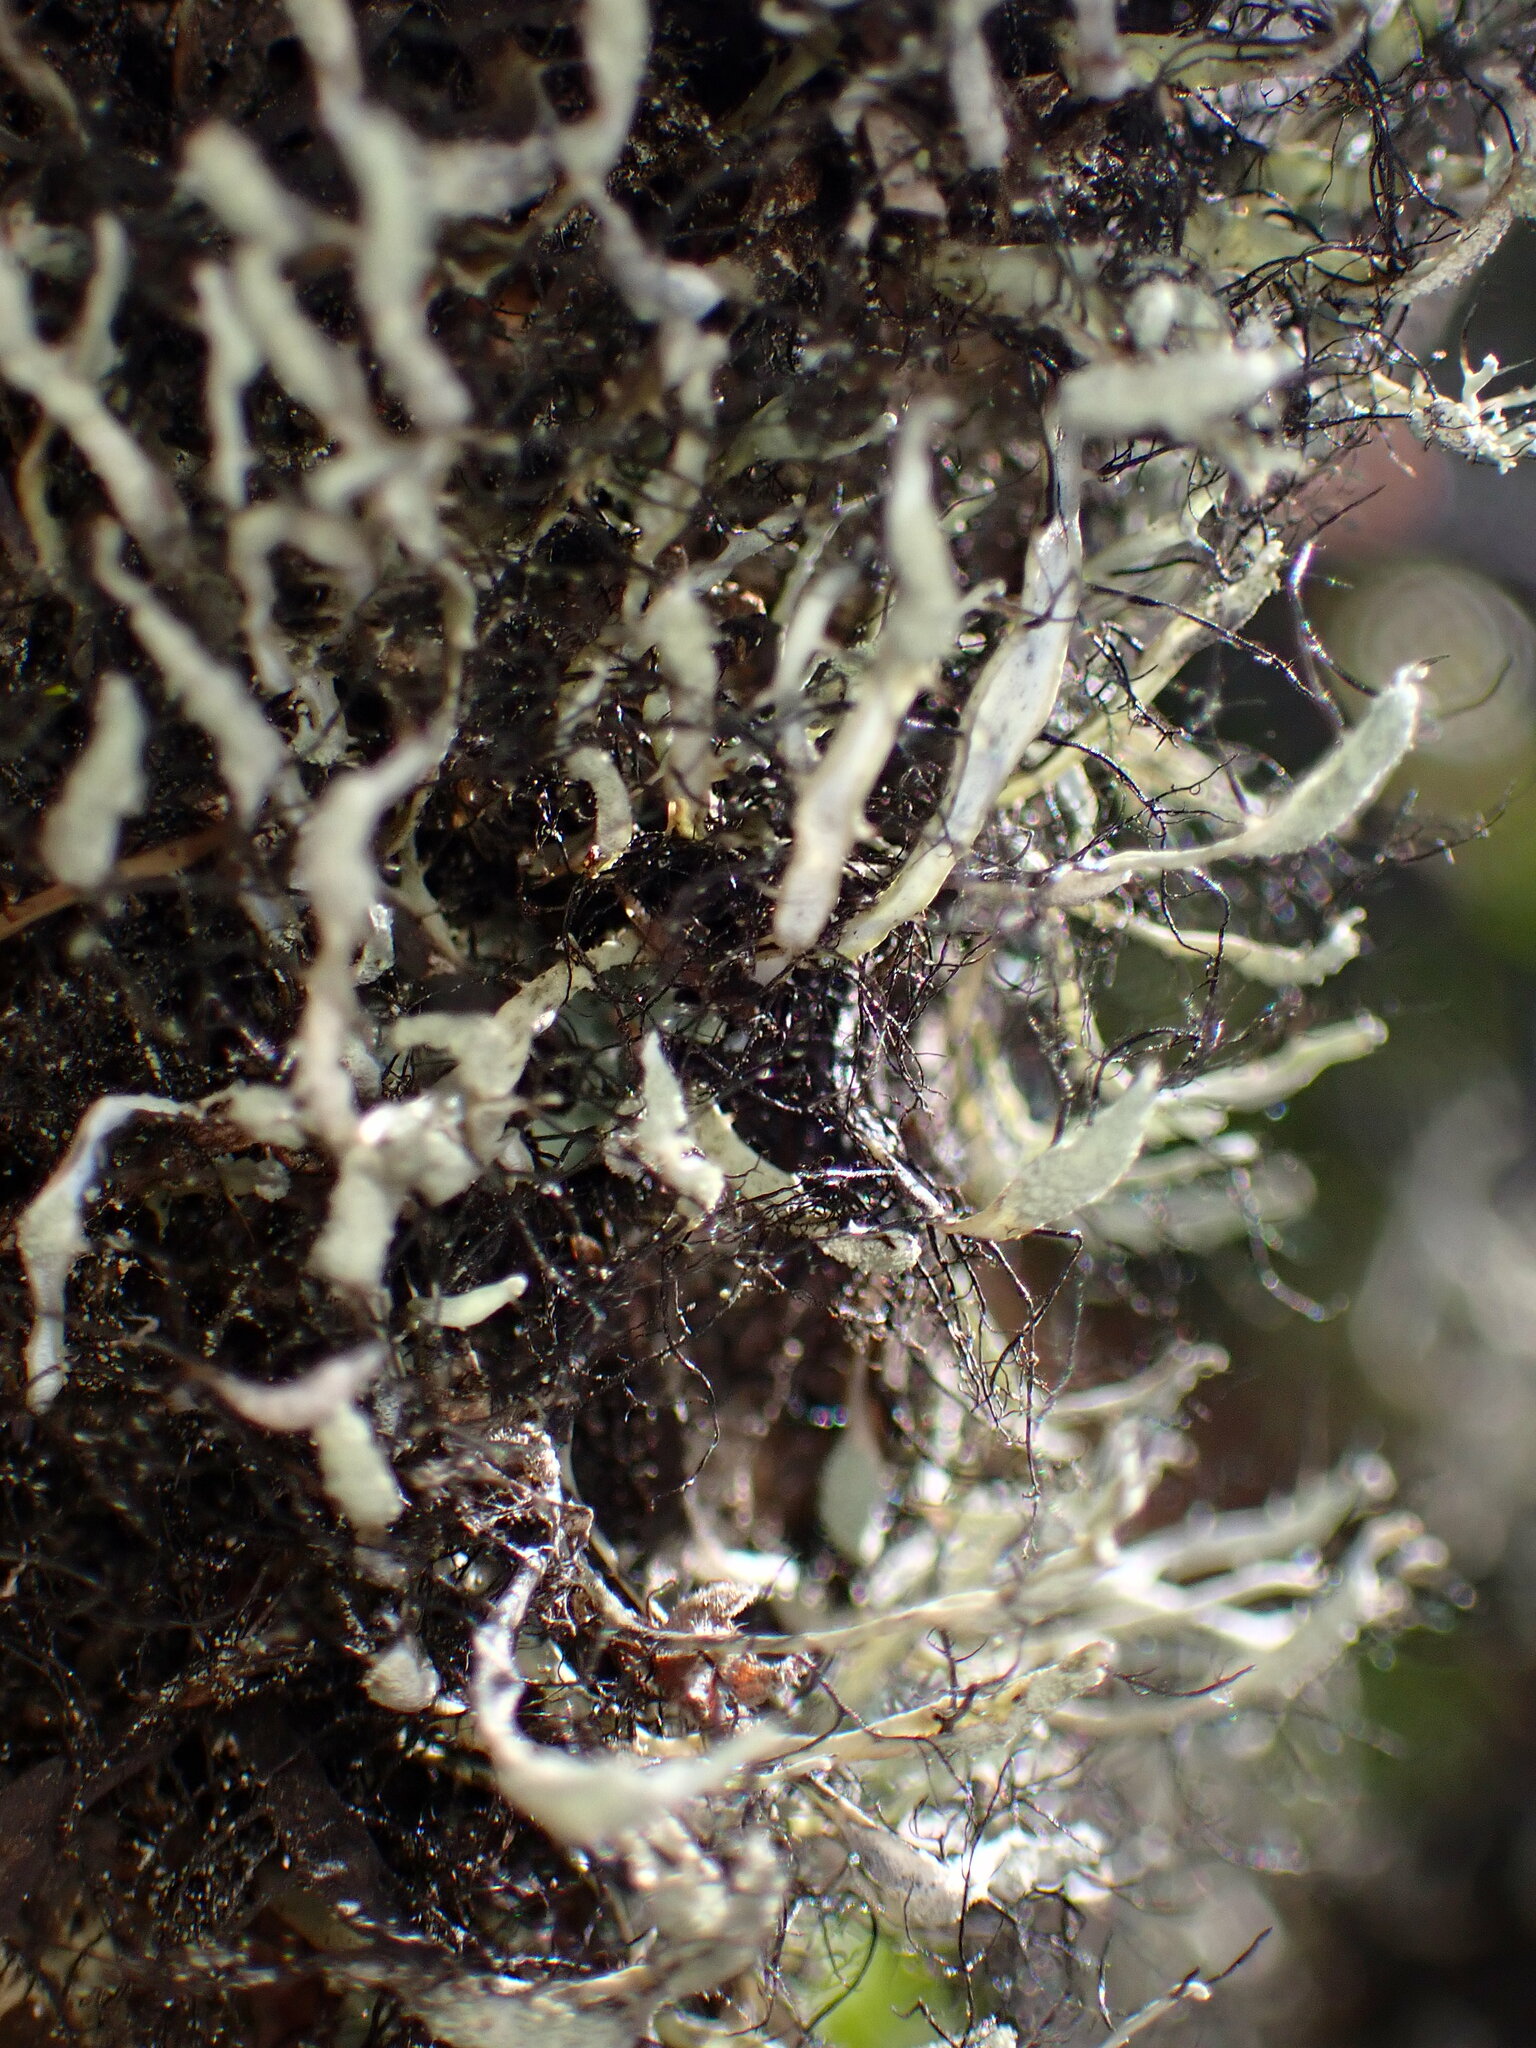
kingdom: Fungi
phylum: Ascomycota
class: Lecanoromycetes
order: Caliciales
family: Physciaceae
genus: Leucodermia
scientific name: Leucodermia leucomelos
